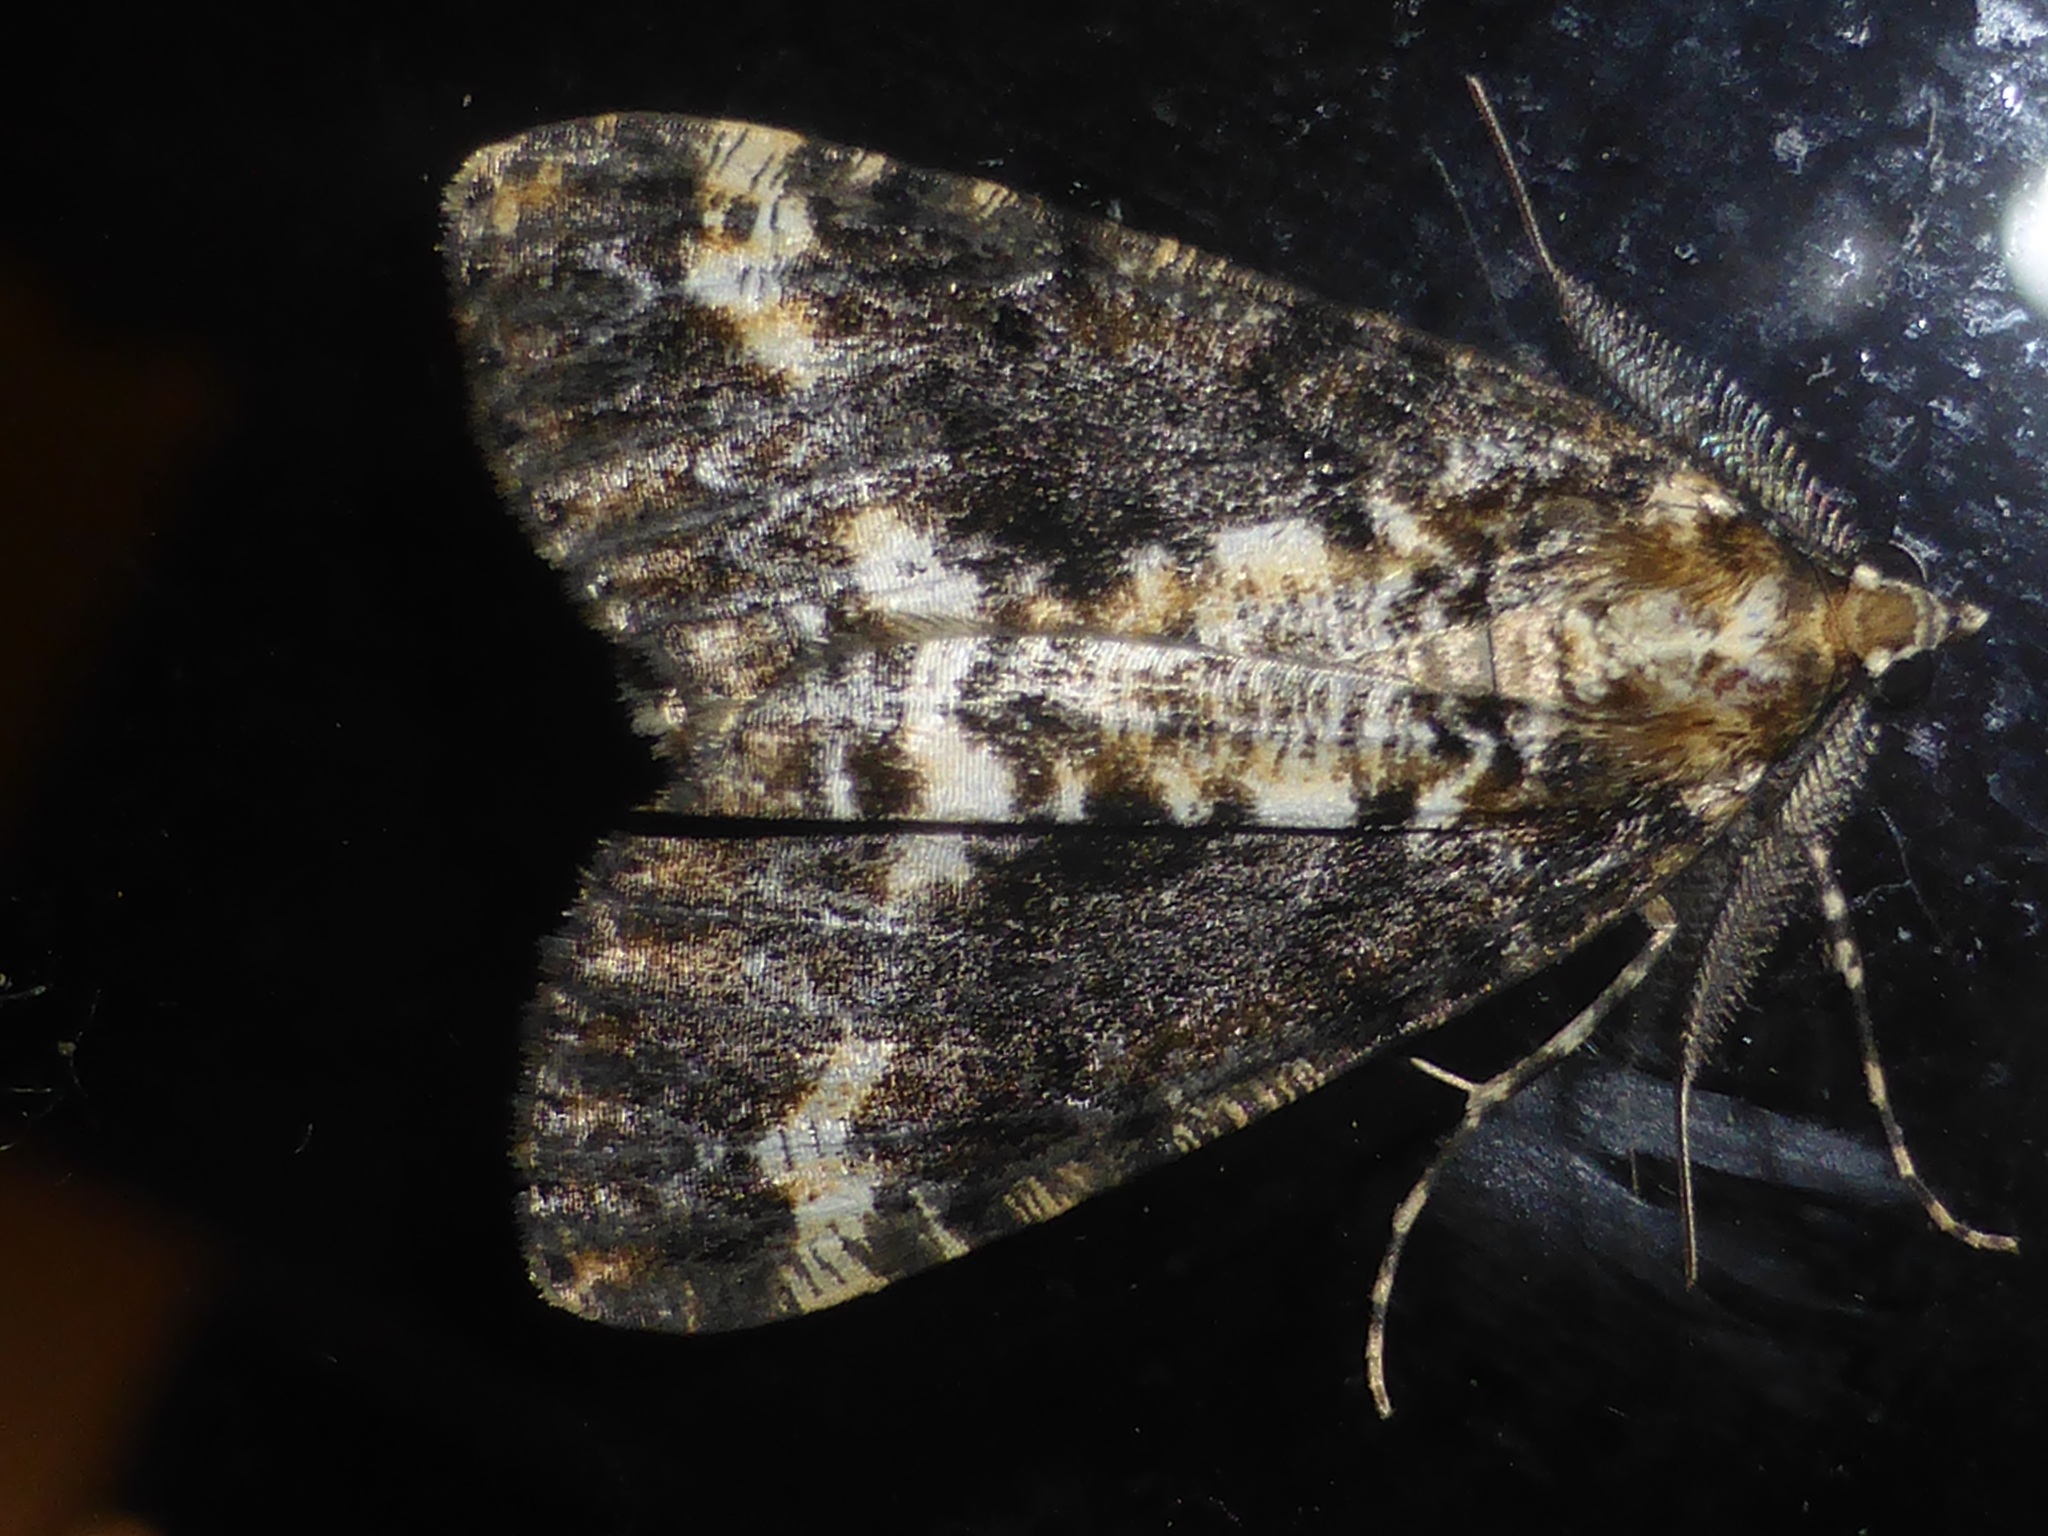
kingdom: Animalia
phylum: Arthropoda
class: Insecta
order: Lepidoptera
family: Geometridae
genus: Pseudocoremia
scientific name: Pseudocoremia leucelaea
